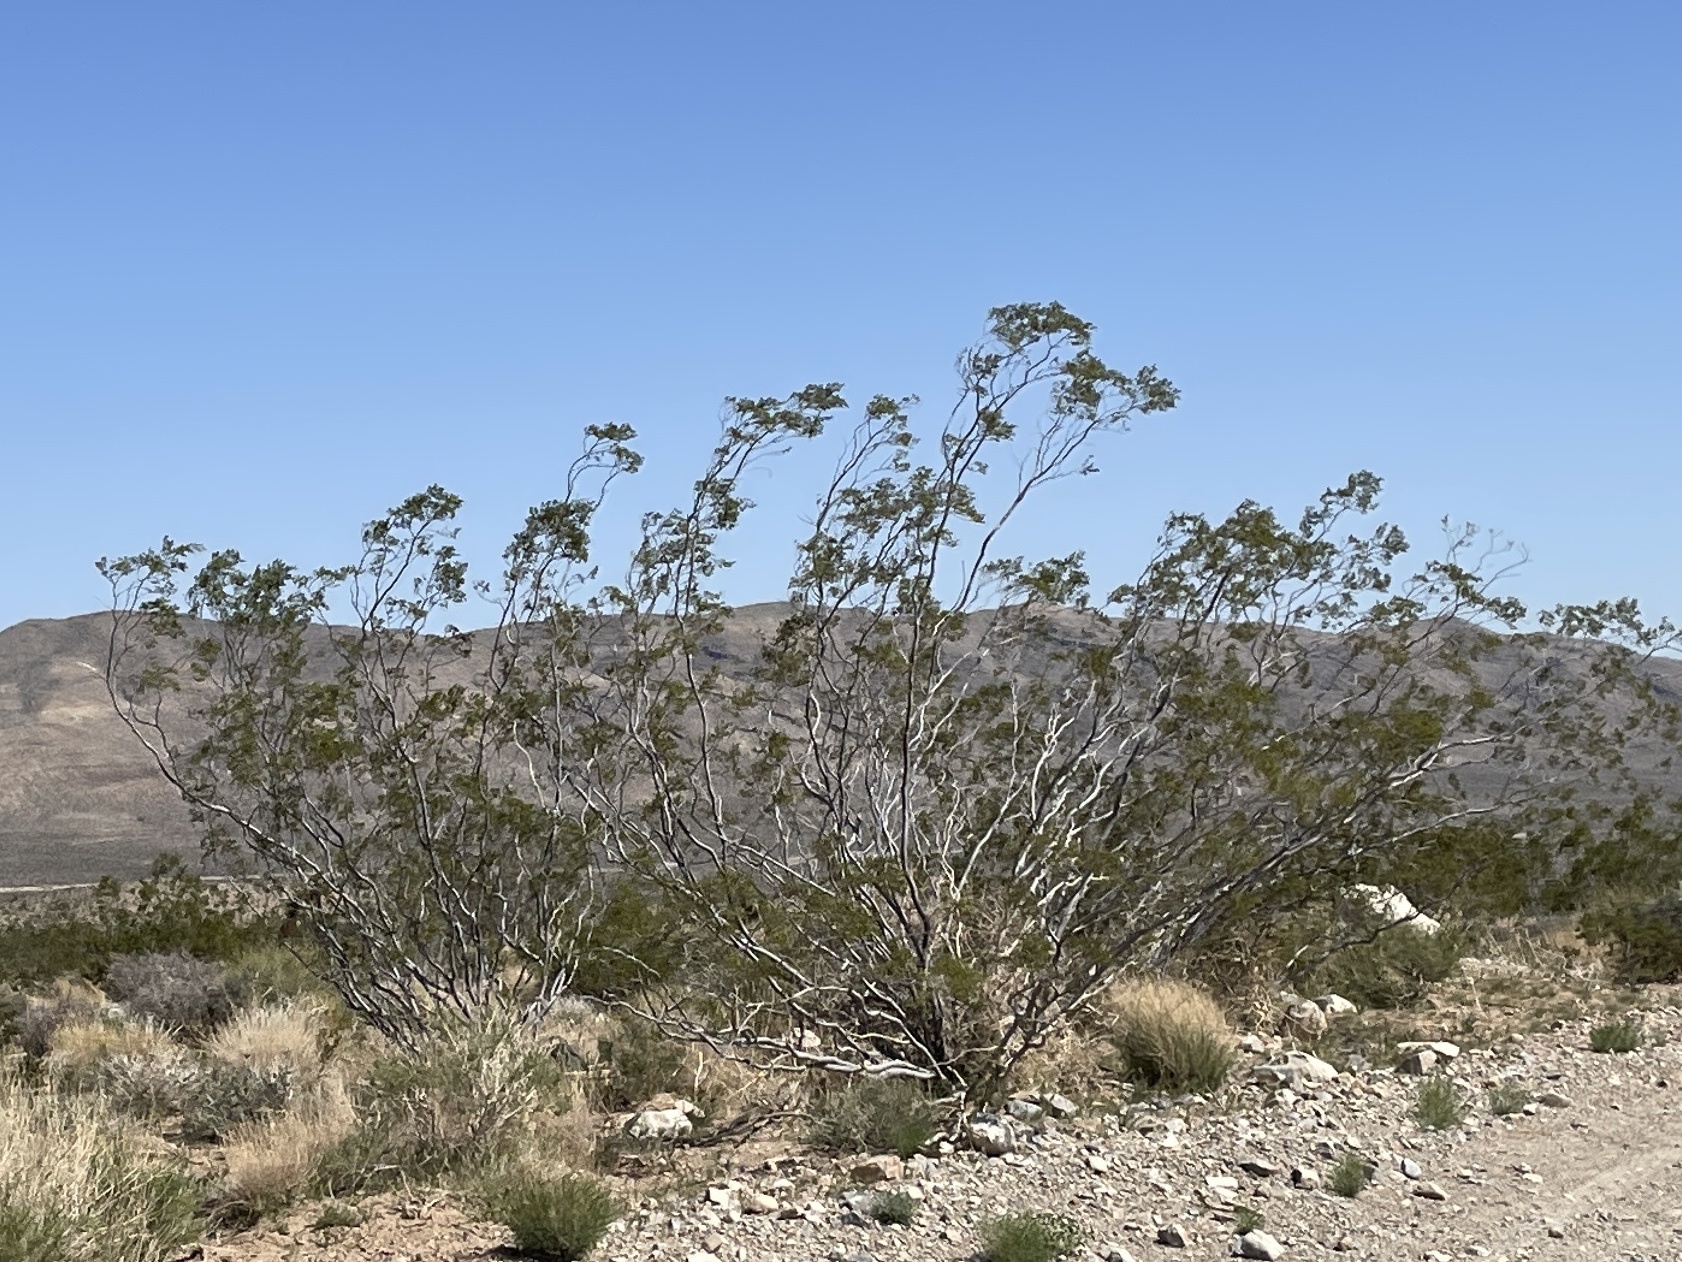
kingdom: Plantae
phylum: Tracheophyta
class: Magnoliopsida
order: Zygophyllales
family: Zygophyllaceae
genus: Larrea
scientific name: Larrea tridentata
